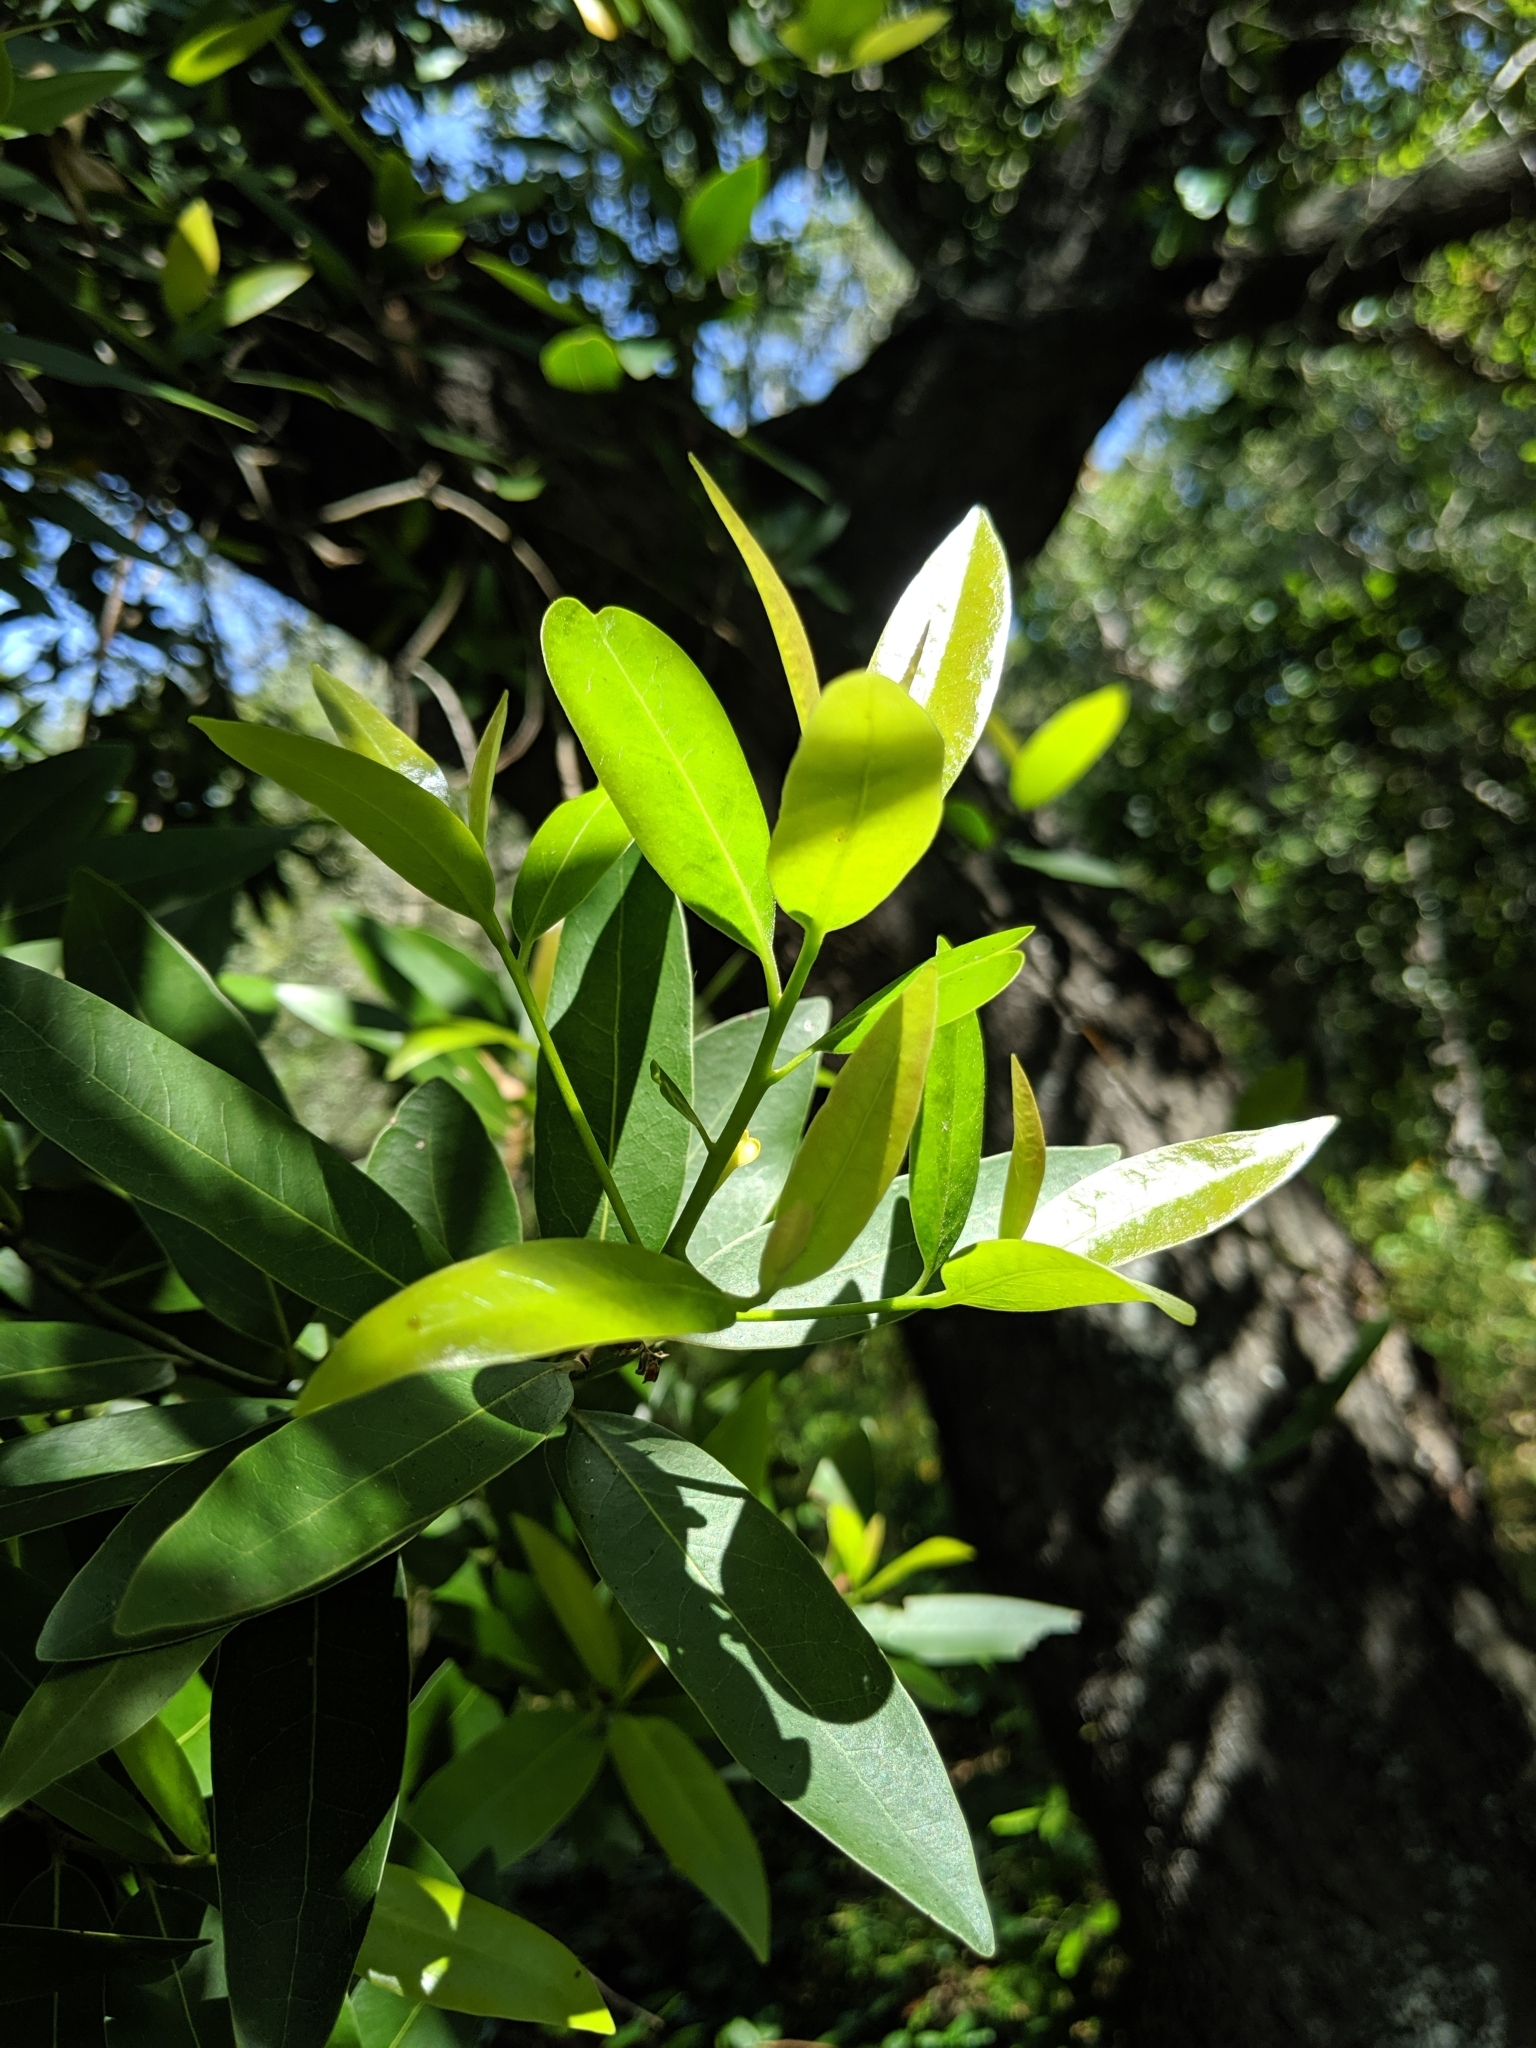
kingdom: Plantae
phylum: Tracheophyta
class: Magnoliopsida
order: Laurales
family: Lauraceae
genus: Umbellularia
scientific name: Umbellularia californica
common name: California bay
